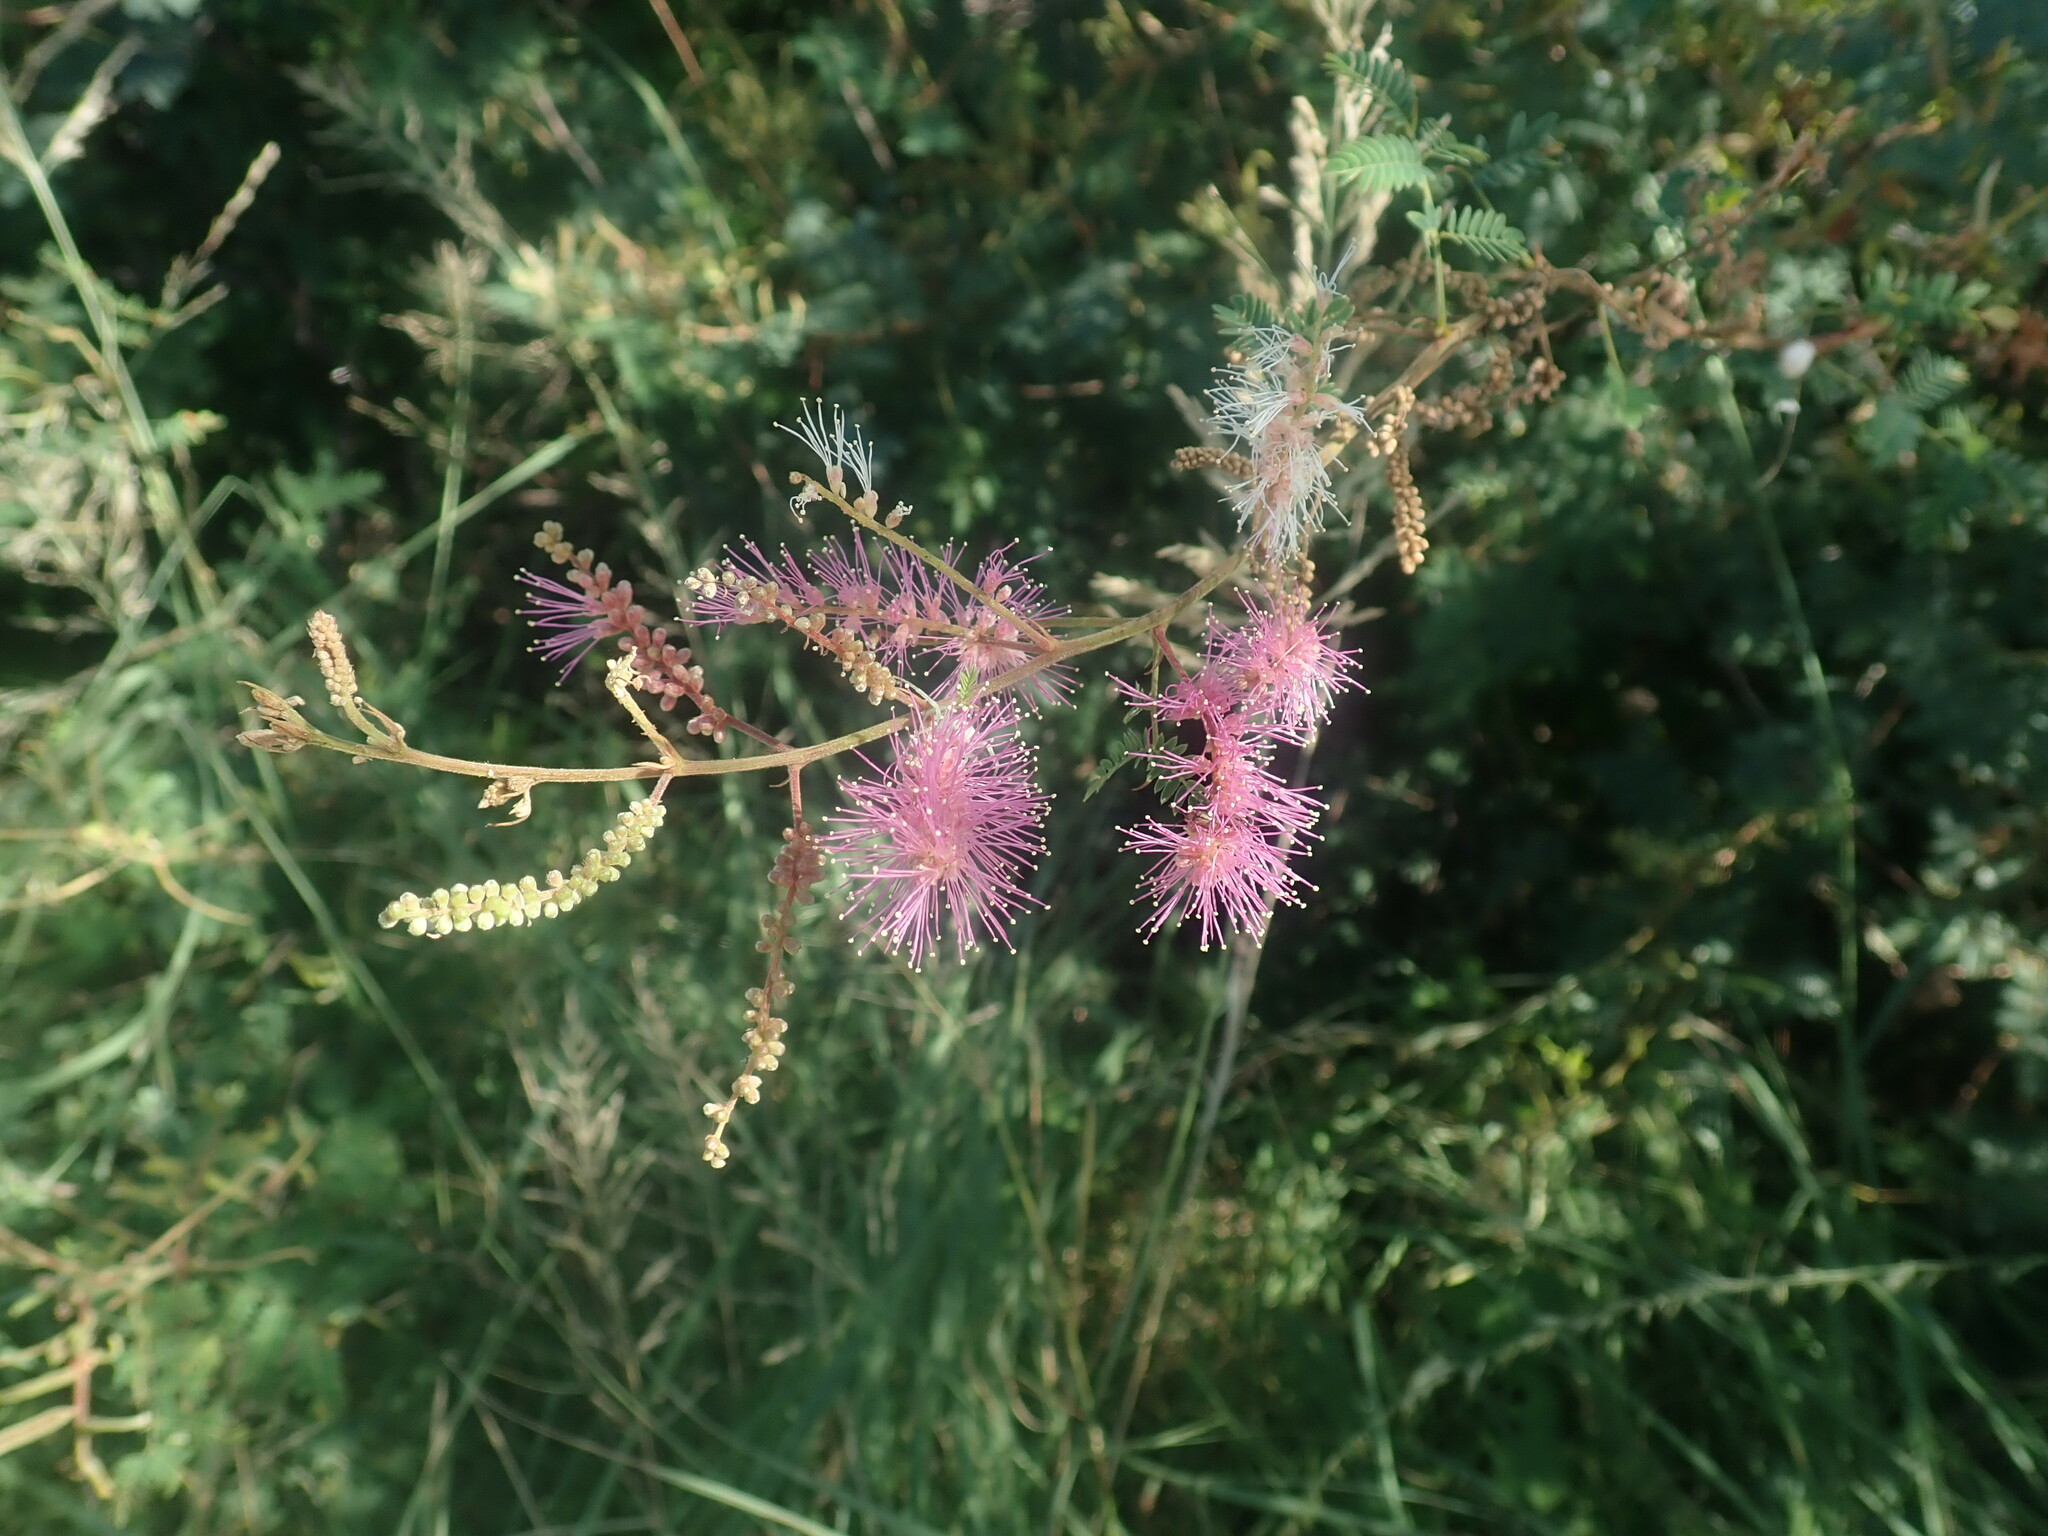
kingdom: Plantae
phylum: Tracheophyta
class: Magnoliopsida
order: Fabales
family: Fabaceae
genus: Mimosa
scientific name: Mimosa dysocarpa
